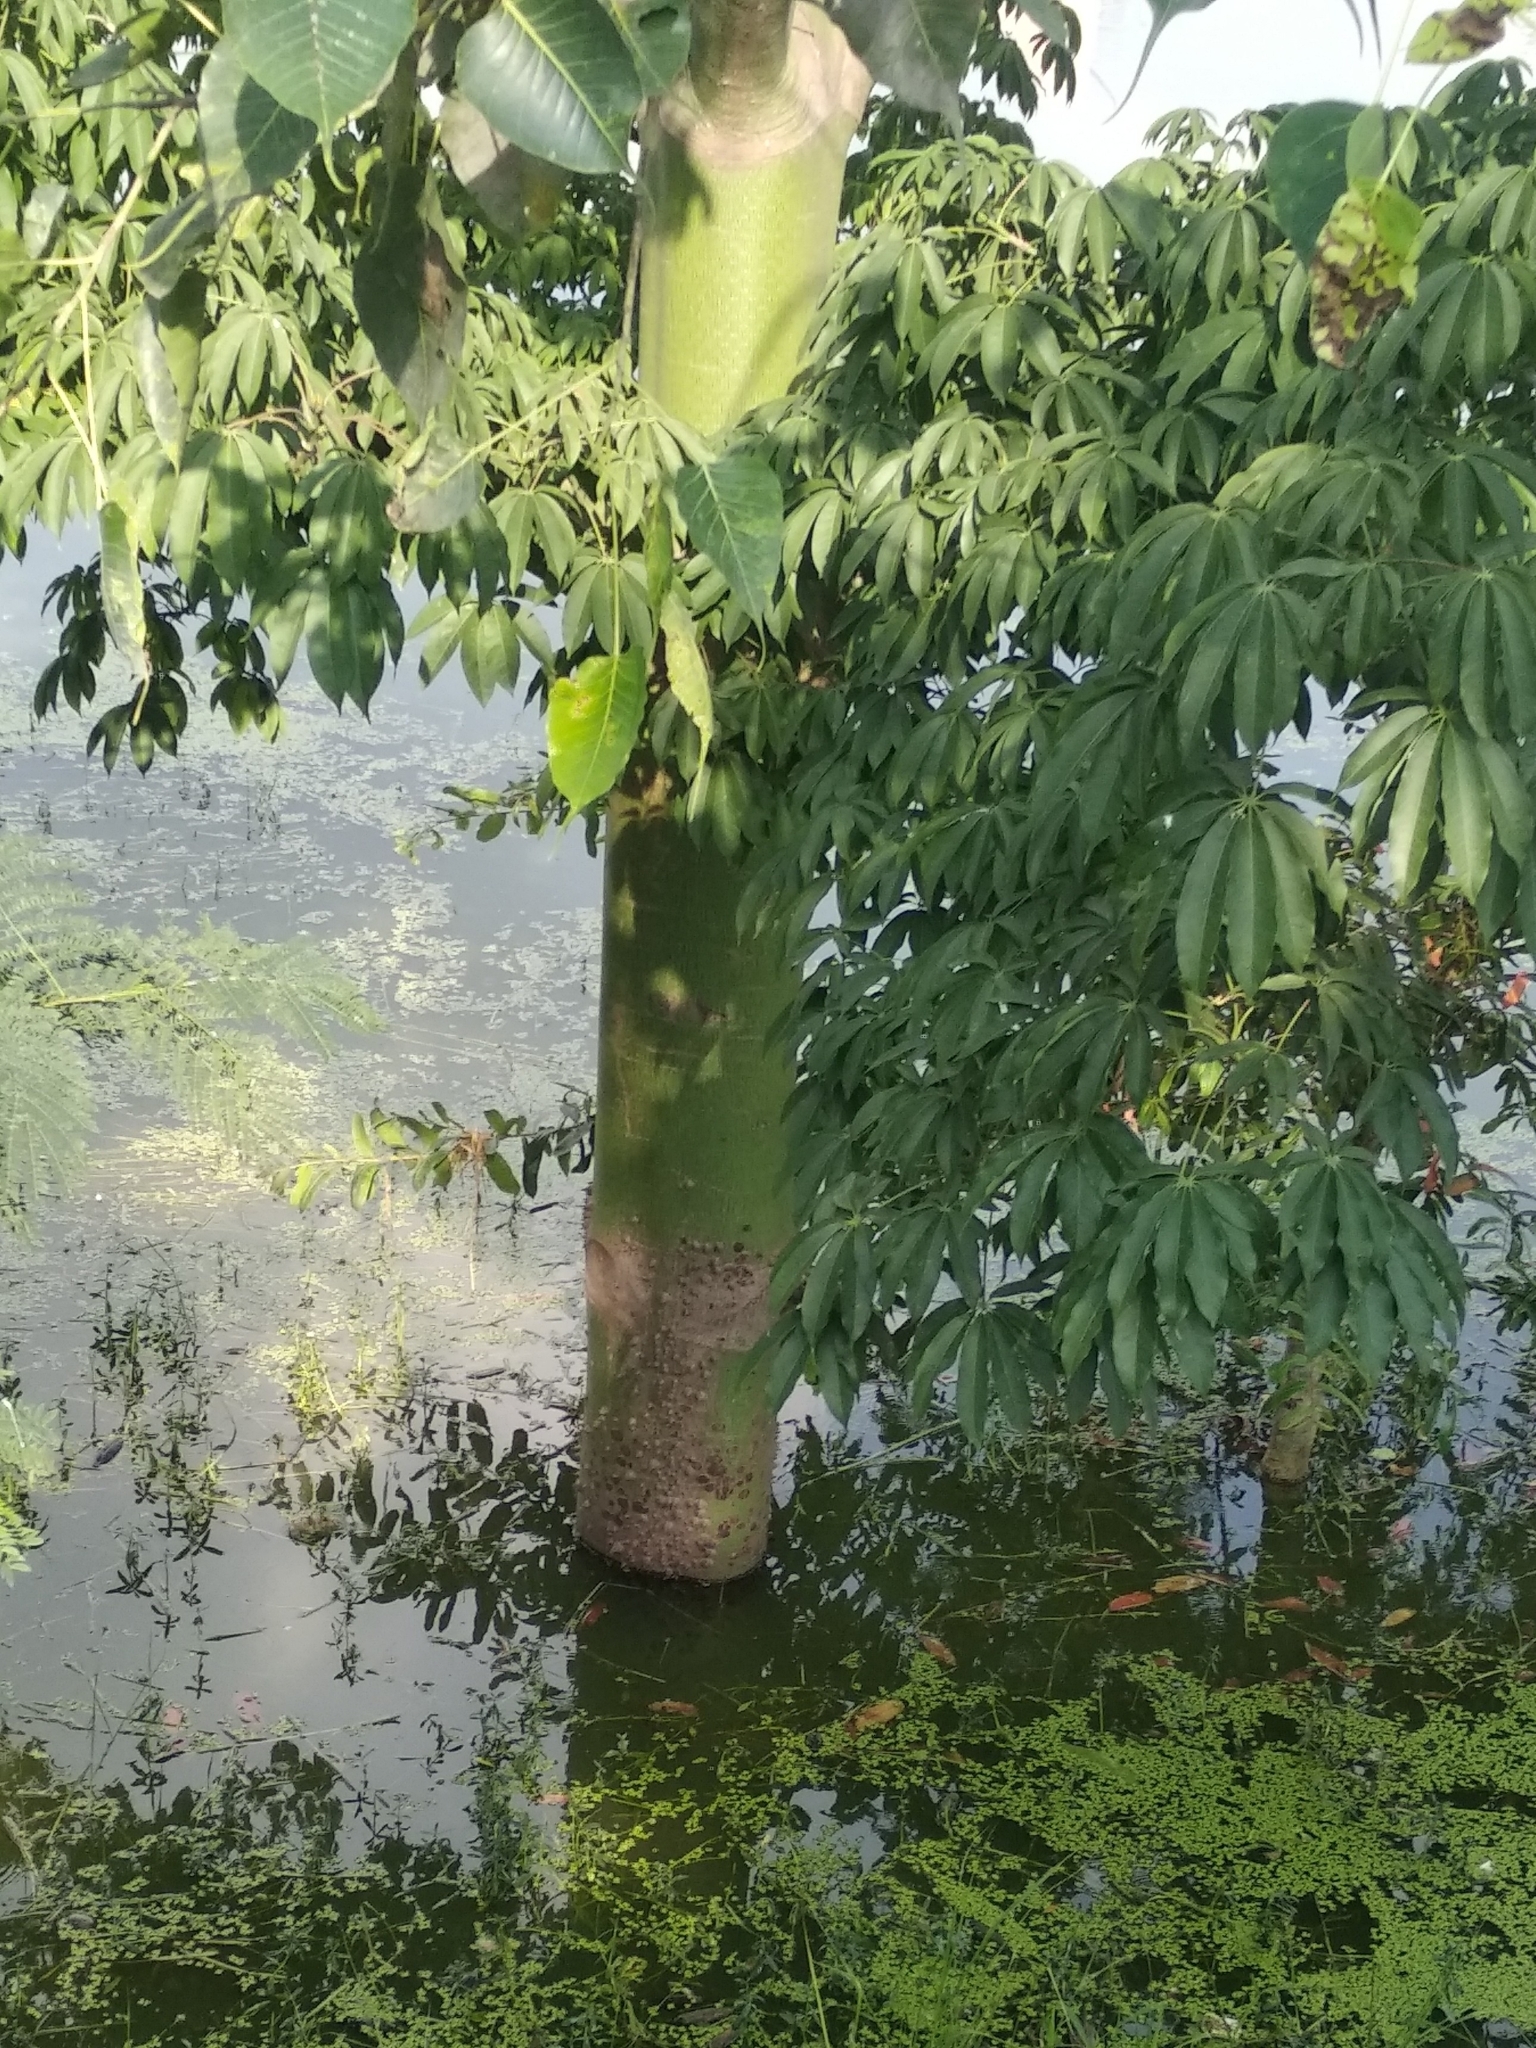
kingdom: Plantae
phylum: Tracheophyta
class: Magnoliopsida
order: Malvales
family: Malvaceae
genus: Ceiba
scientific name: Ceiba pentandra
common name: Kapok
